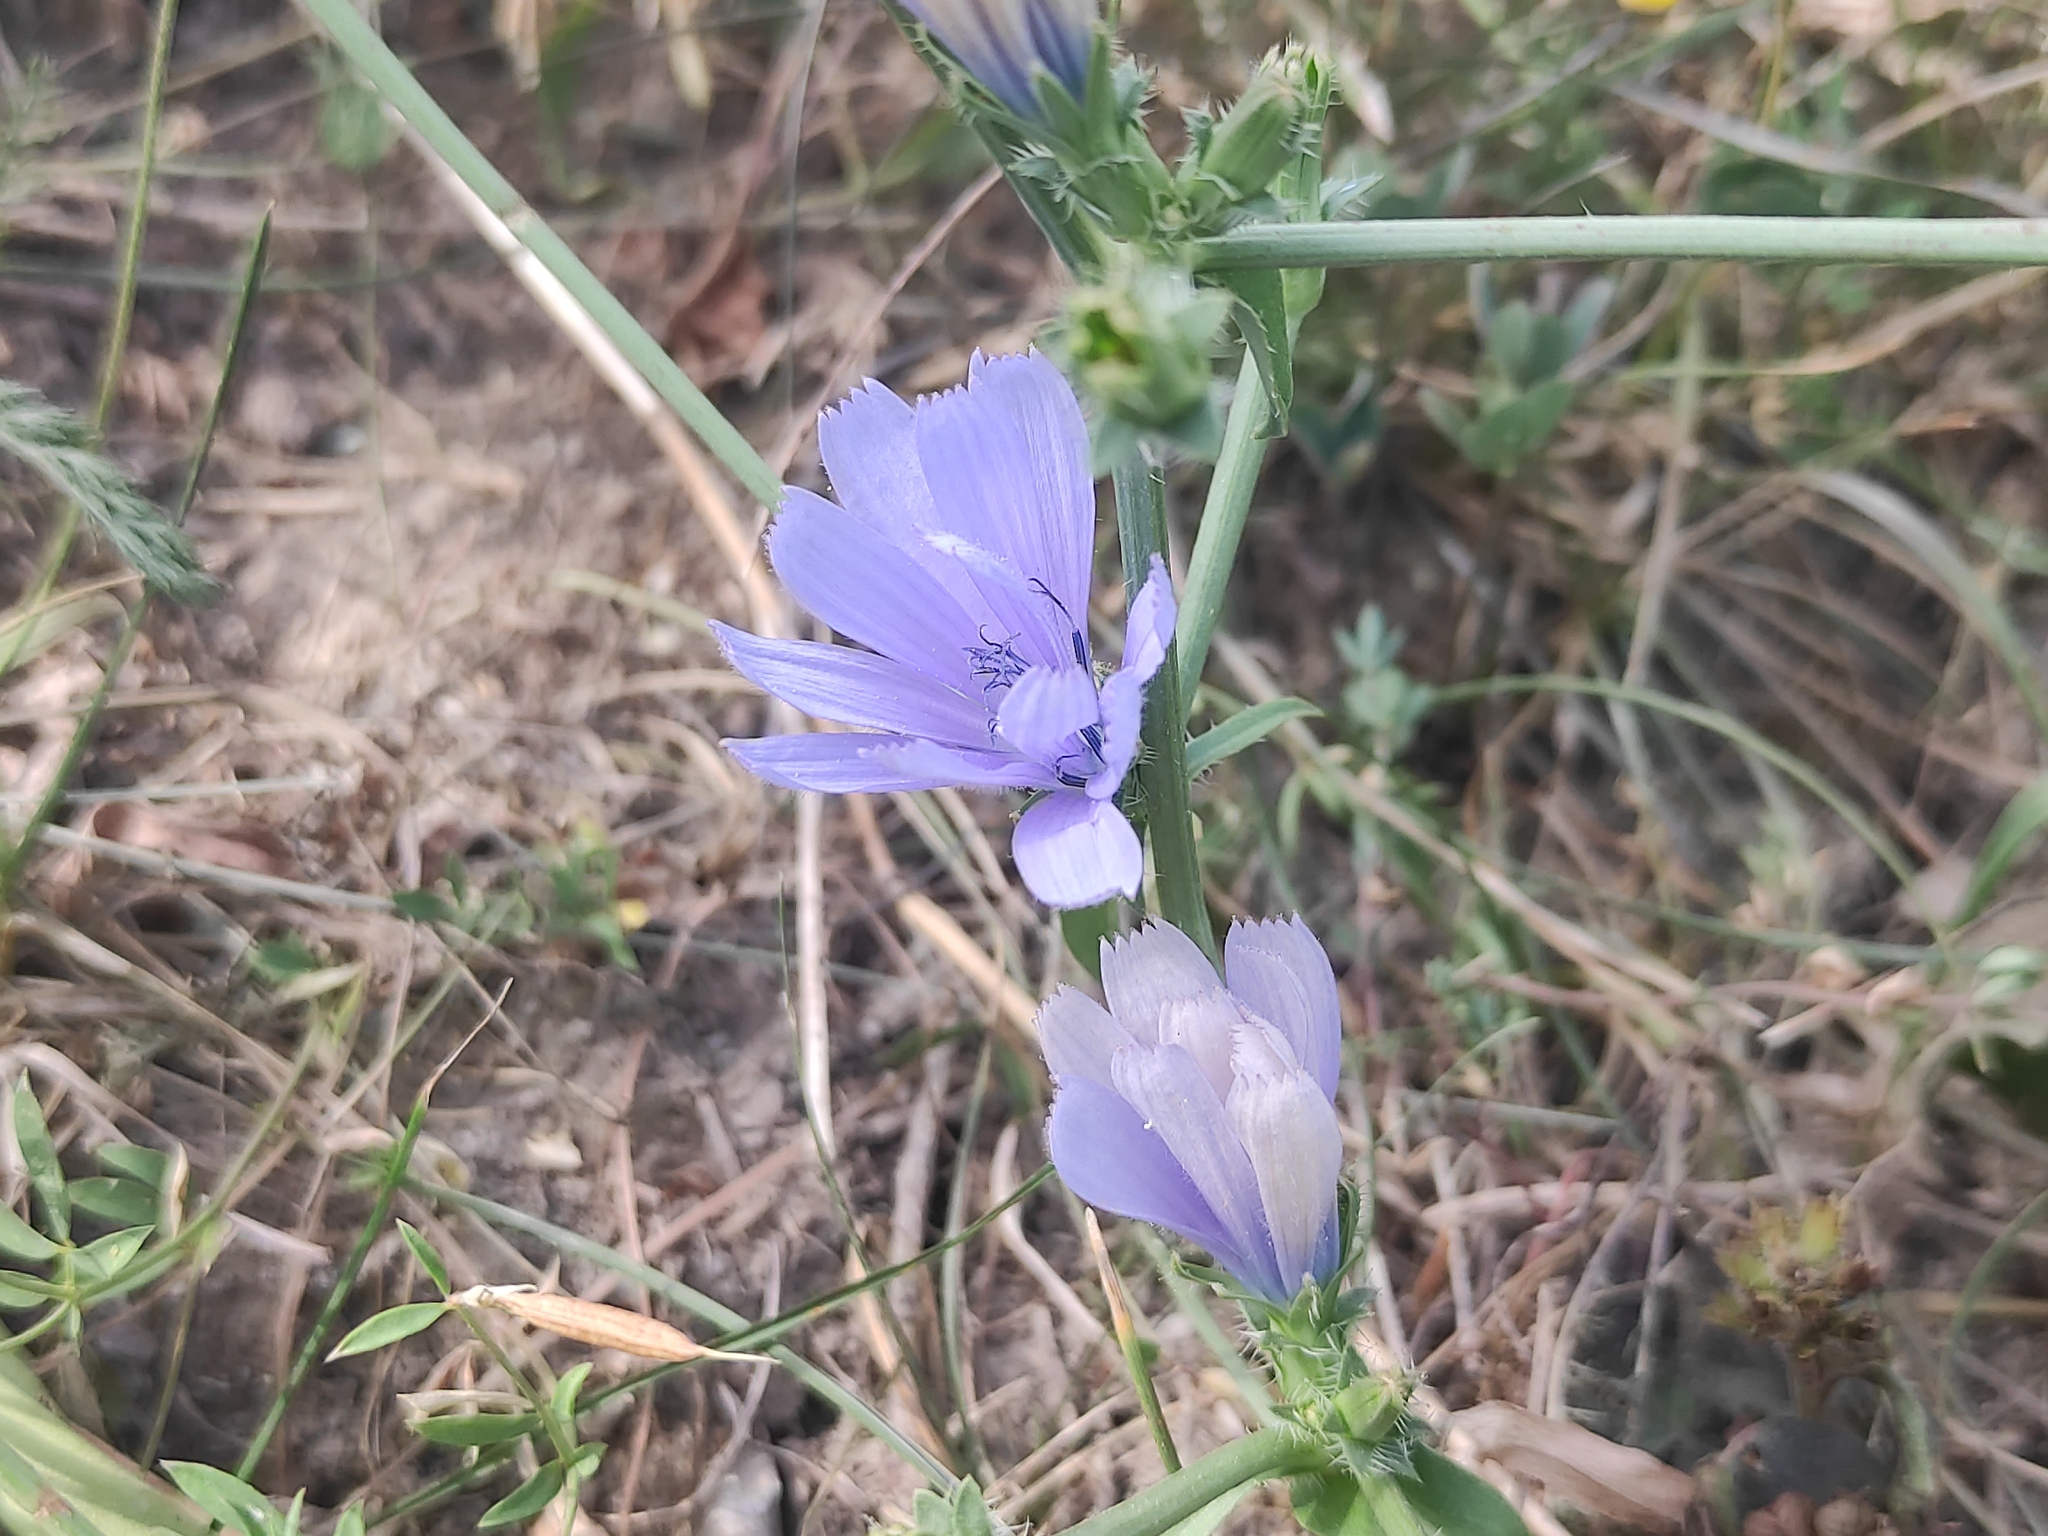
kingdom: Plantae
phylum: Tracheophyta
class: Magnoliopsida
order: Asterales
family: Asteraceae
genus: Cichorium
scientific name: Cichorium intybus
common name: Chicory
